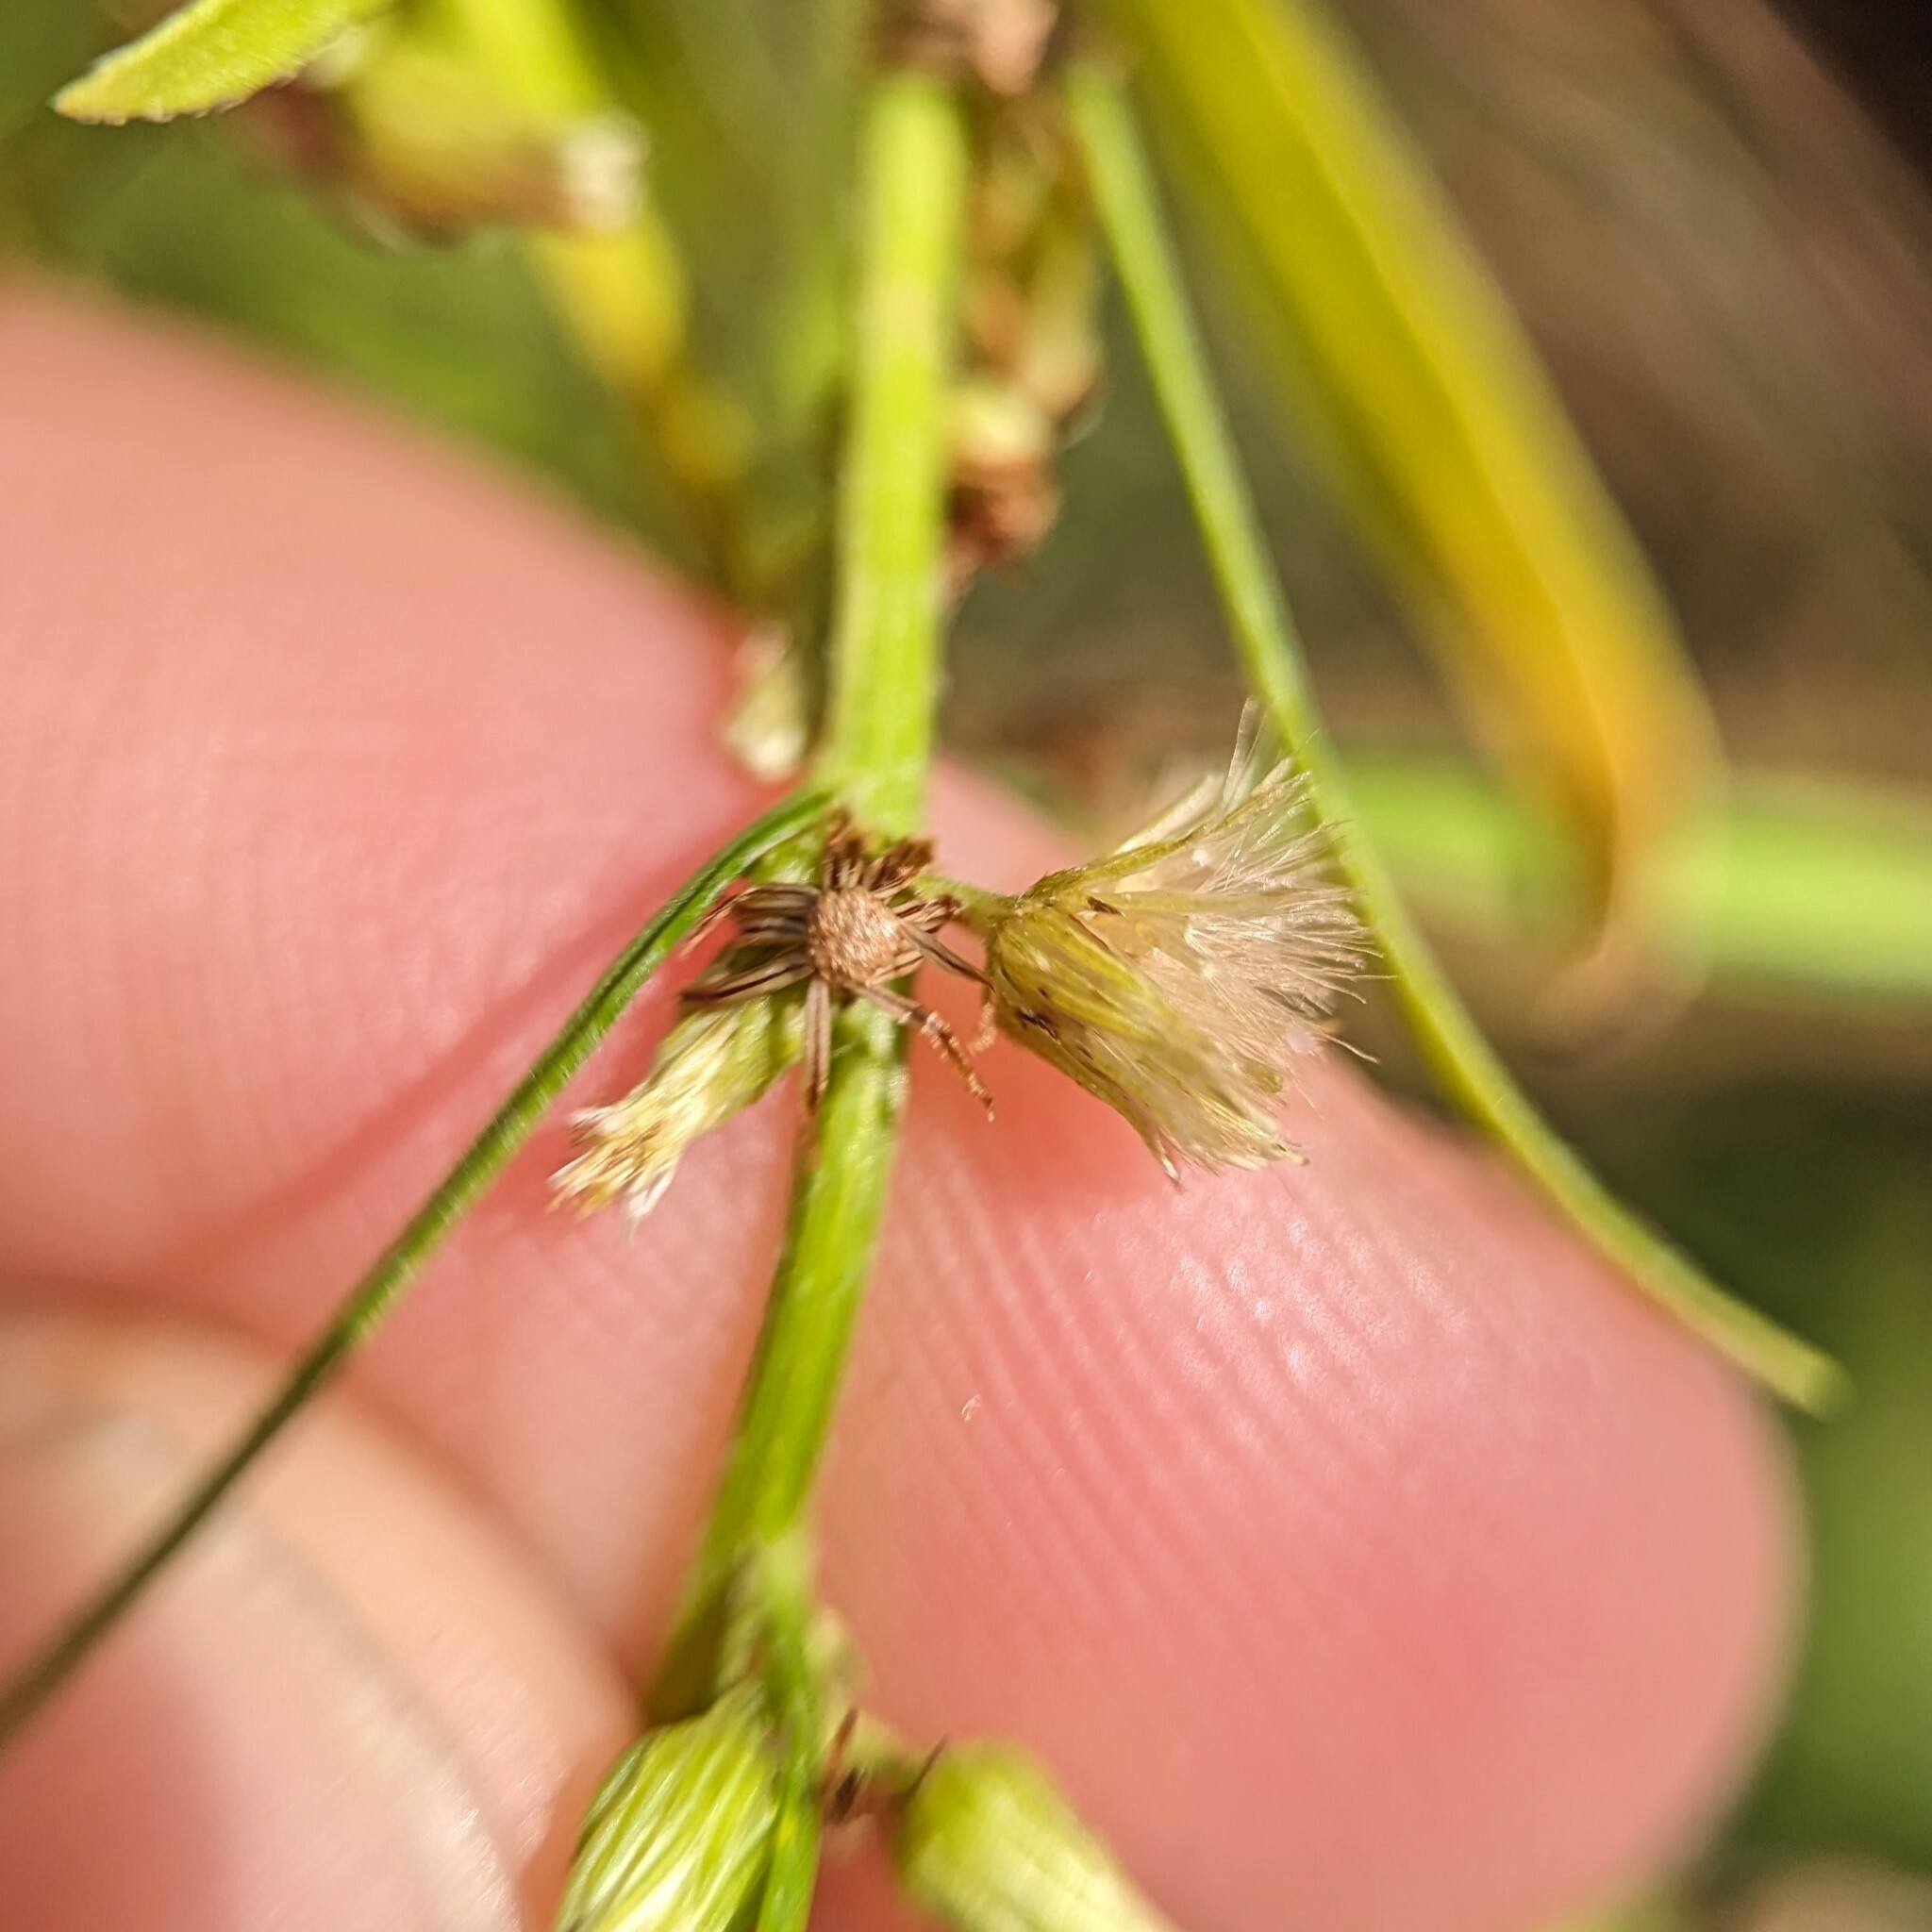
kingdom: Plantae
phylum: Tracheophyta
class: Magnoliopsida
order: Asterales
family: Asteraceae
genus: Erigeron
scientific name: Erigeron canadensis
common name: Canadian fleabane
